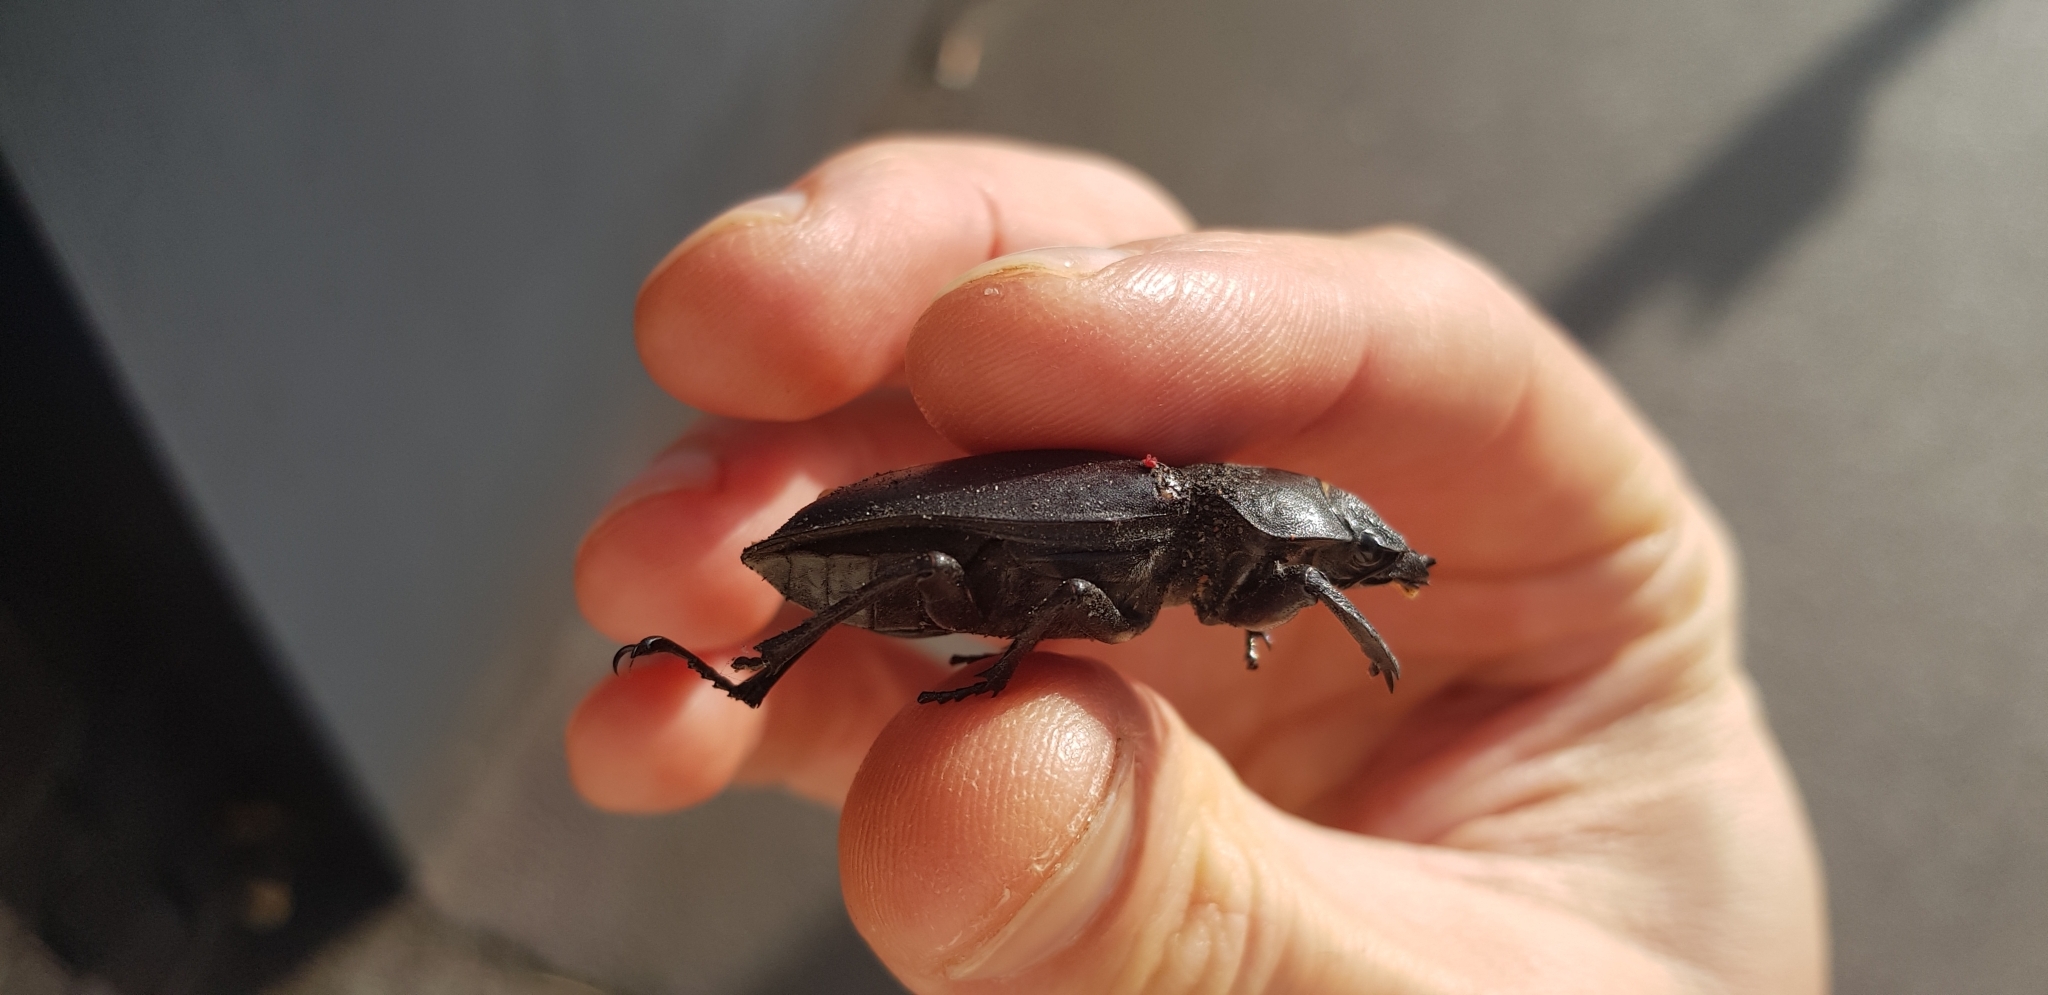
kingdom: Animalia
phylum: Arthropoda
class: Insecta
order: Coleoptera
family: Lucanidae
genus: Lucanus
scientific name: Lucanus cervus
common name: Stag beetle
